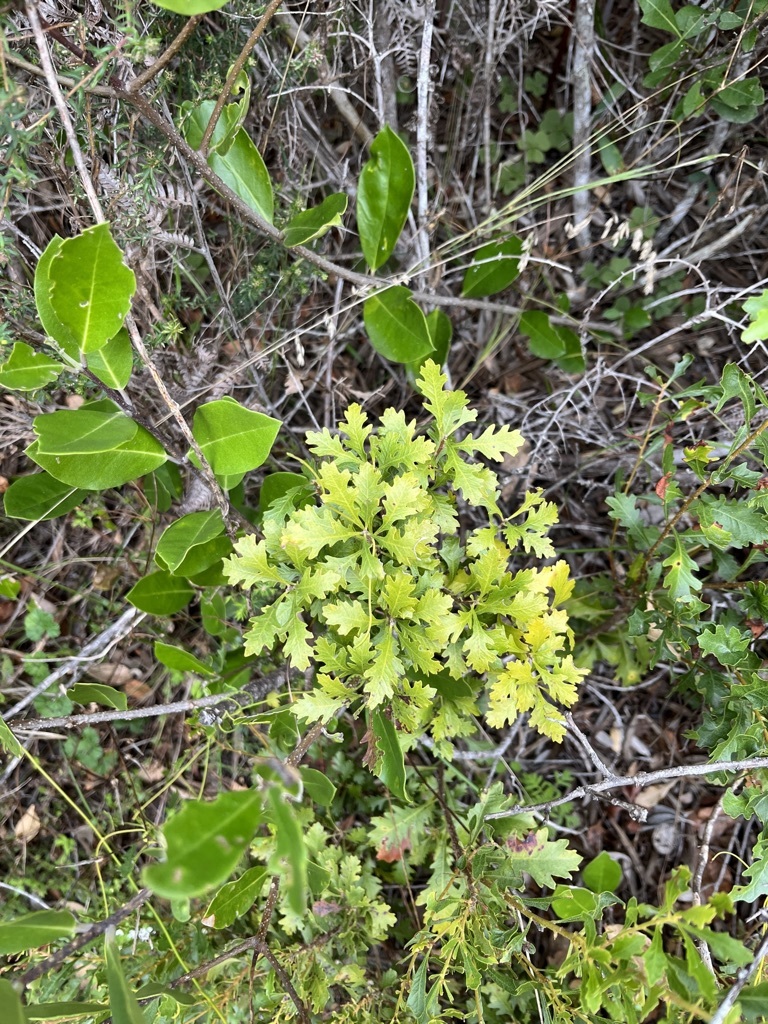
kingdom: Plantae
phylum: Tracheophyta
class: Magnoliopsida
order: Fagales
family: Myricaceae
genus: Morella
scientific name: Morella quercifolia
